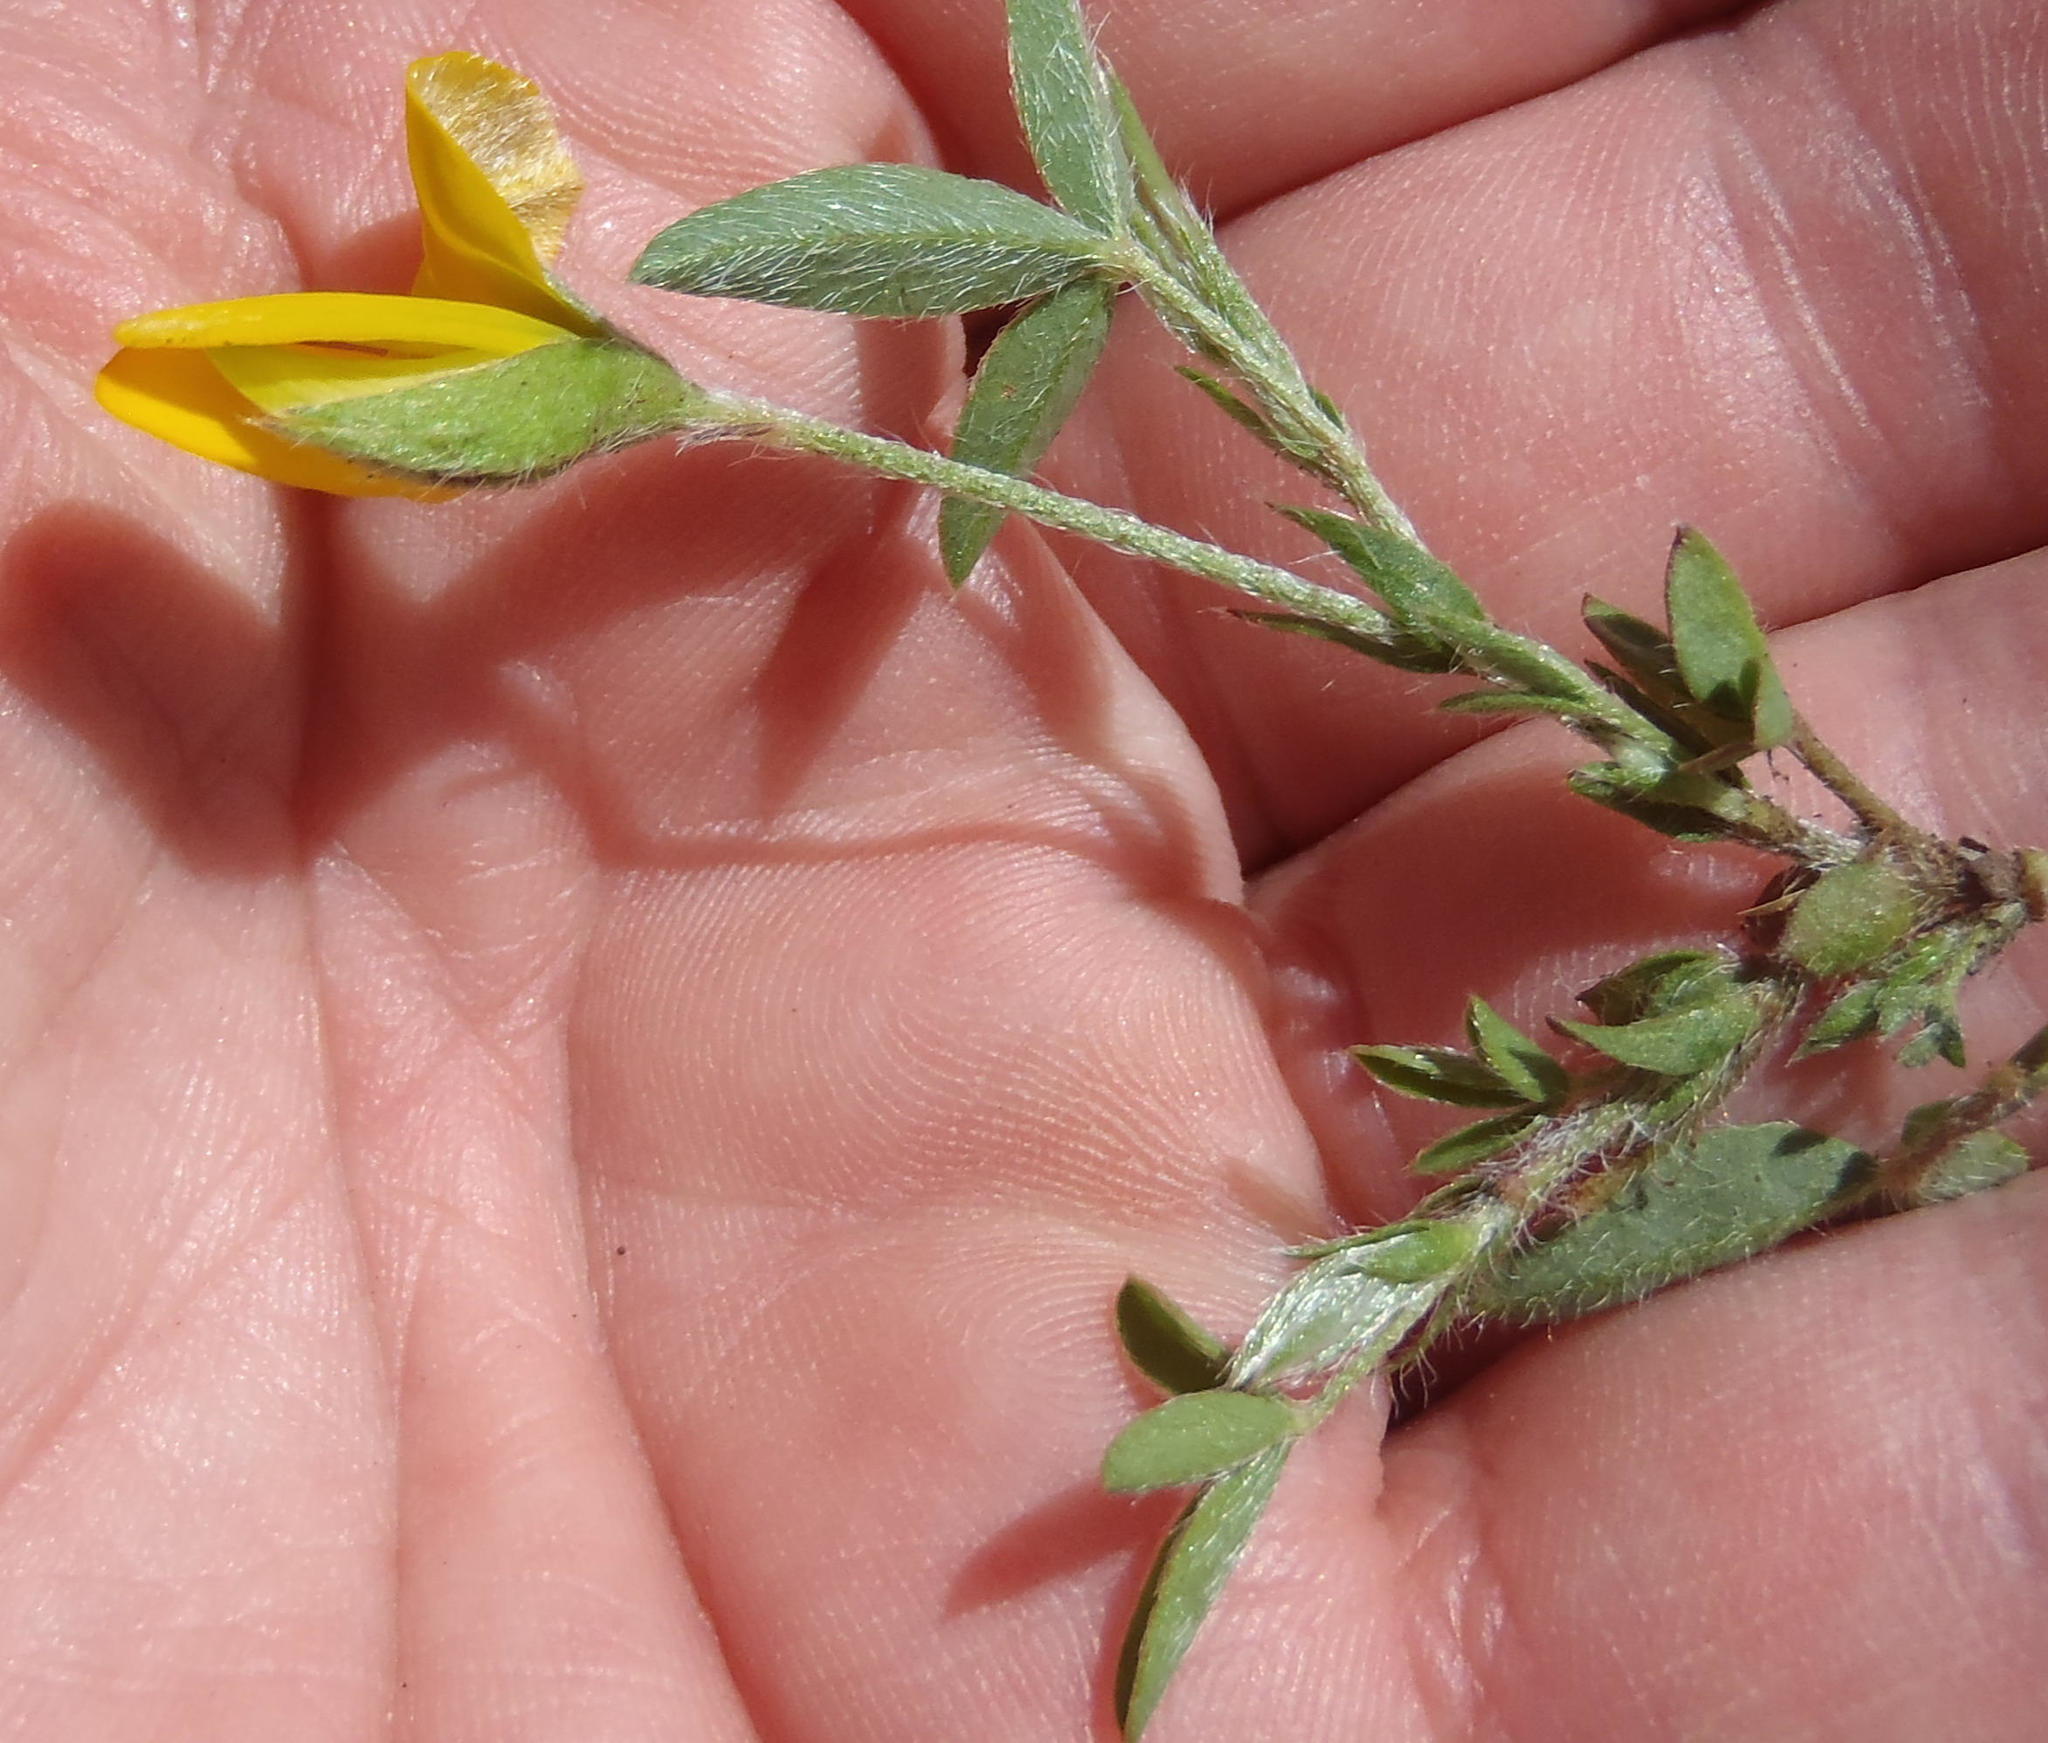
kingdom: Plantae
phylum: Tracheophyta
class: Magnoliopsida
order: Fabales
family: Fabaceae
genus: Rhynchosia
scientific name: Rhynchosia totta
